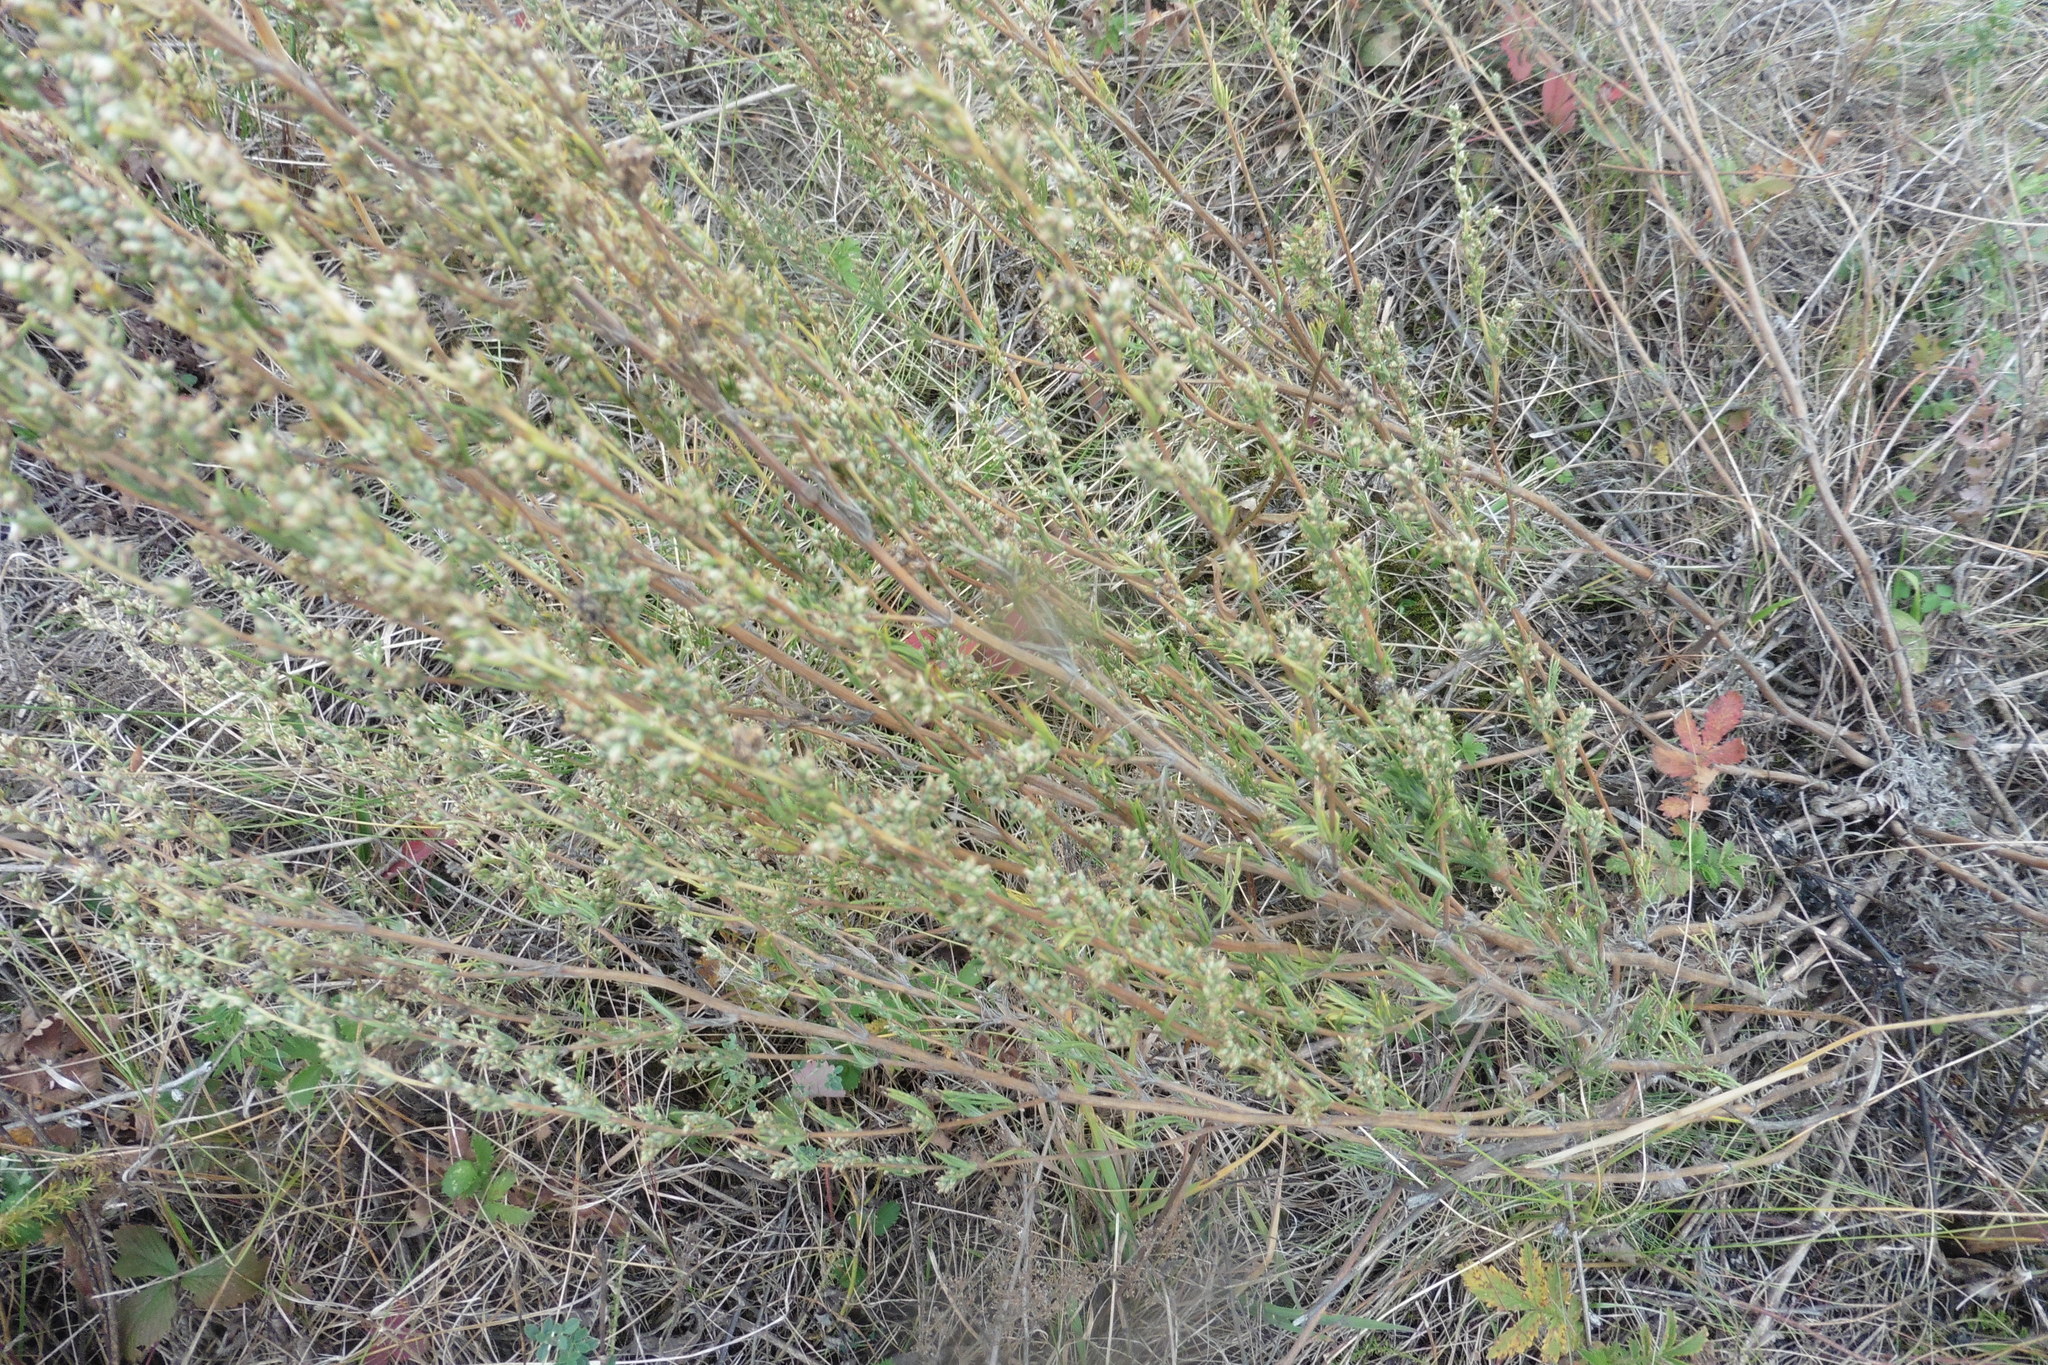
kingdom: Plantae
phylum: Tracheophyta
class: Magnoliopsida
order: Asterales
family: Asteraceae
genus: Artemisia
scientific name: Artemisia campestris
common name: Field wormwood
